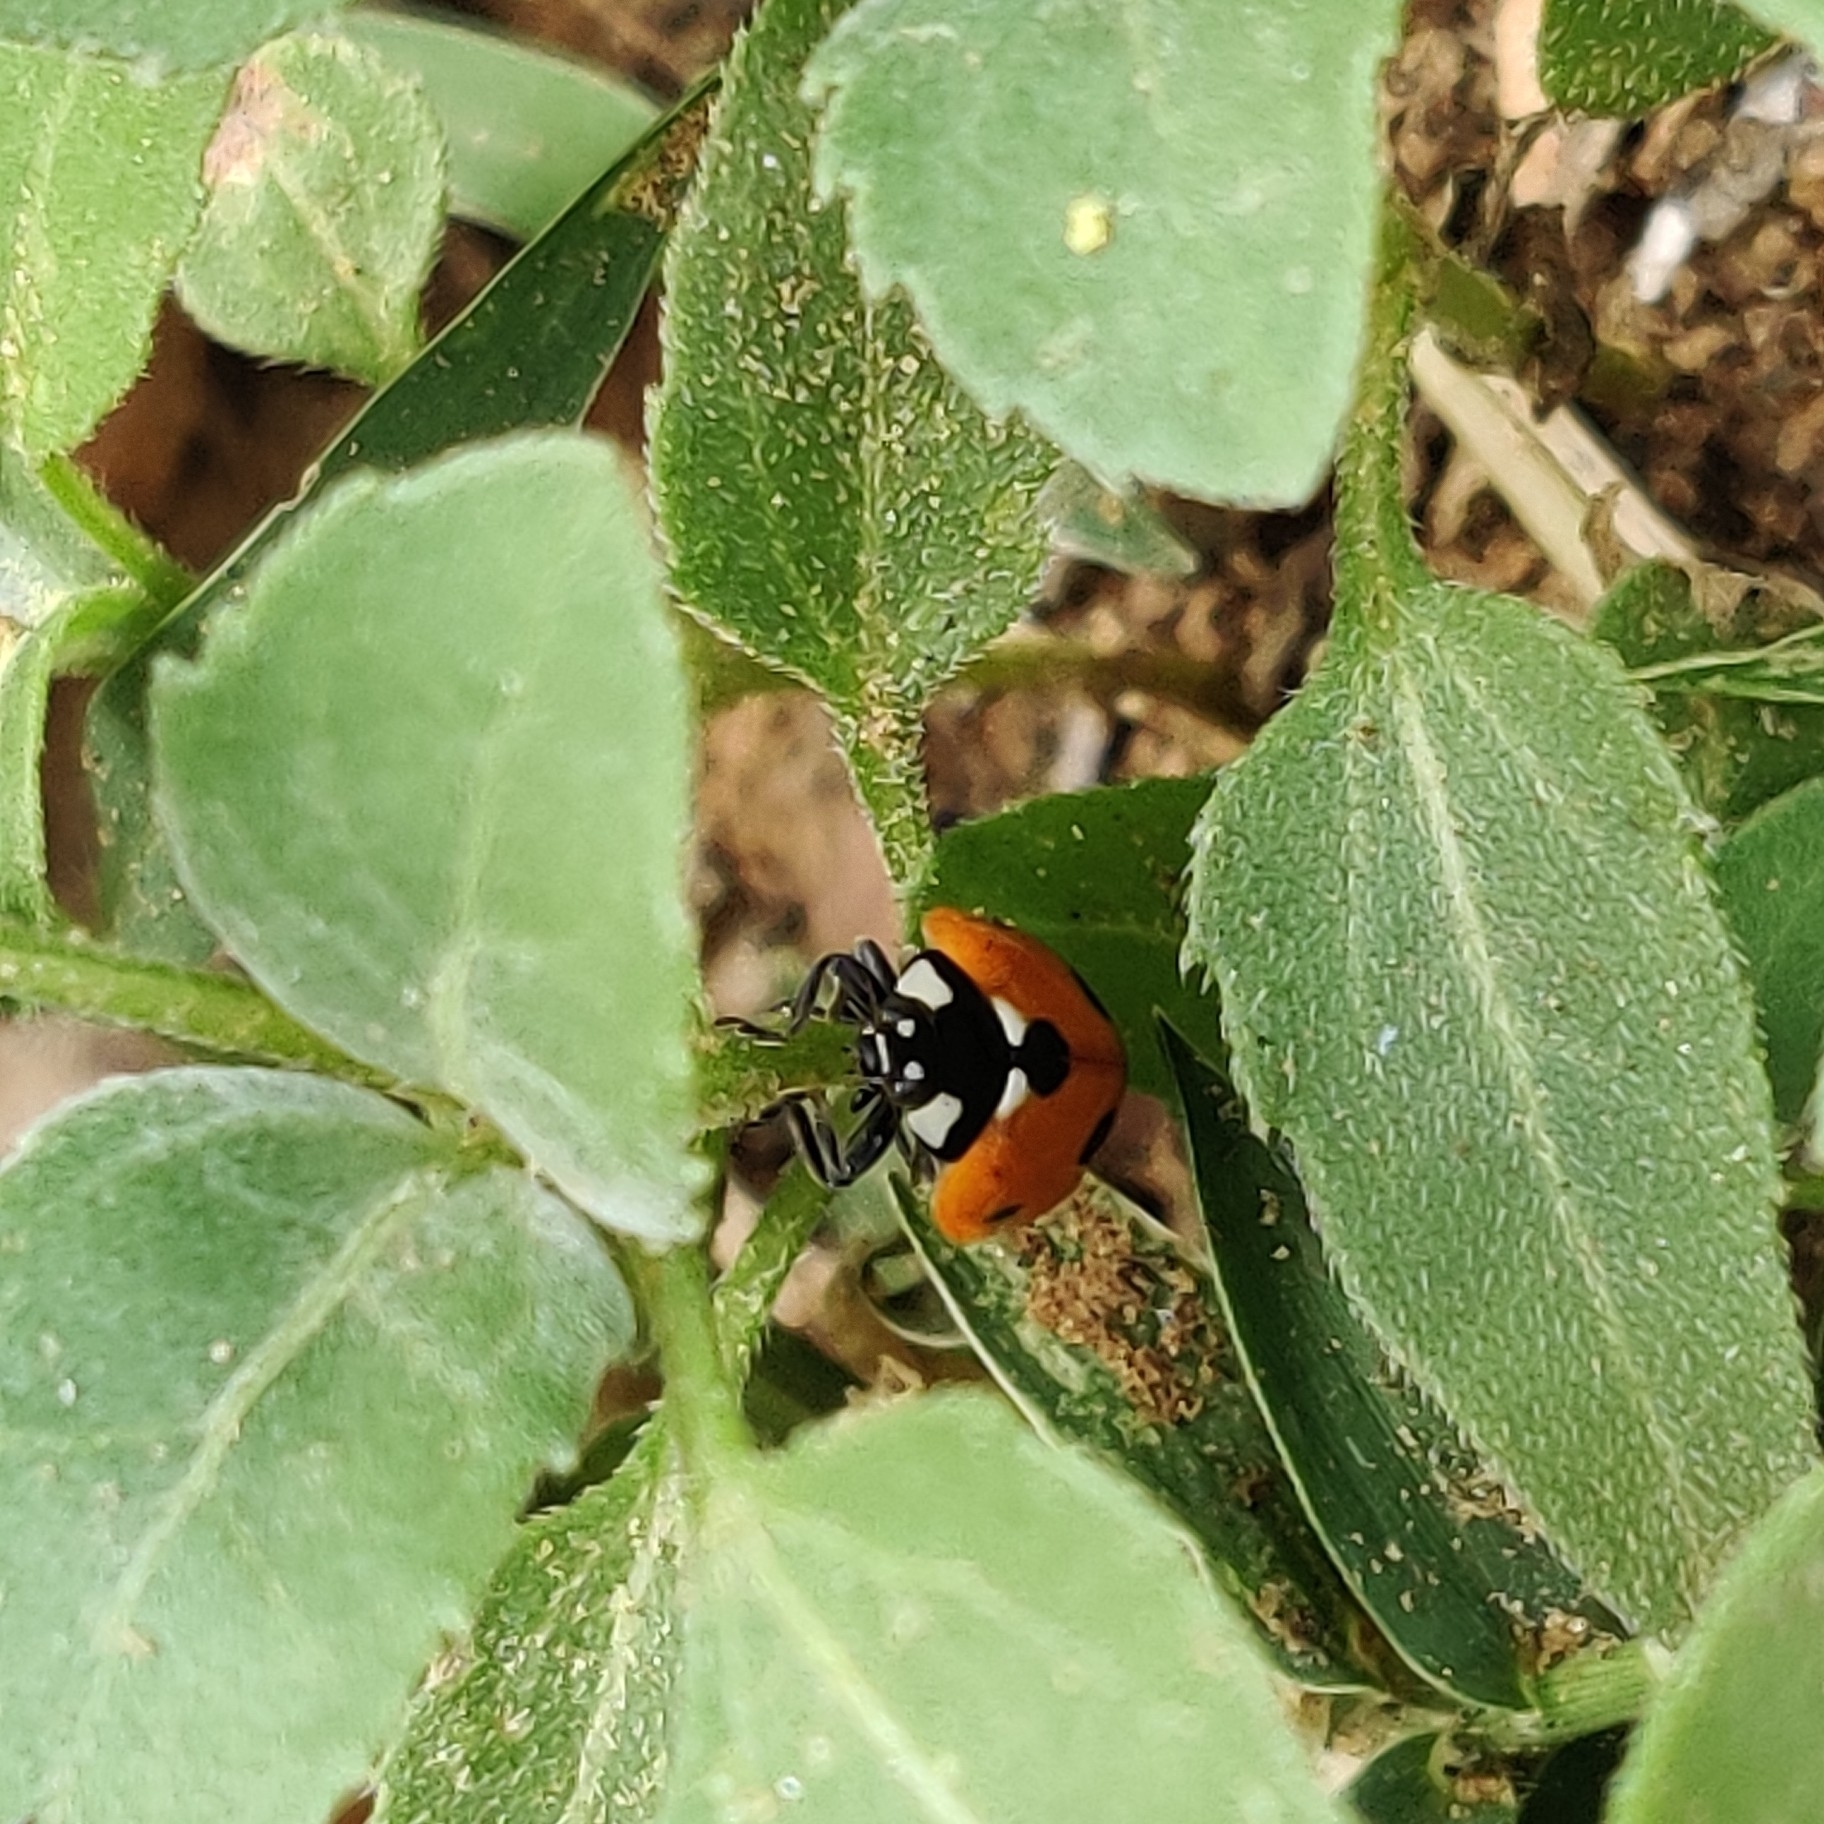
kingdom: Animalia
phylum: Arthropoda
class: Insecta
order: Coleoptera
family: Coccinellidae
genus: Coccinella
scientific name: Coccinella septempunctata
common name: Sevenspotted lady beetle
